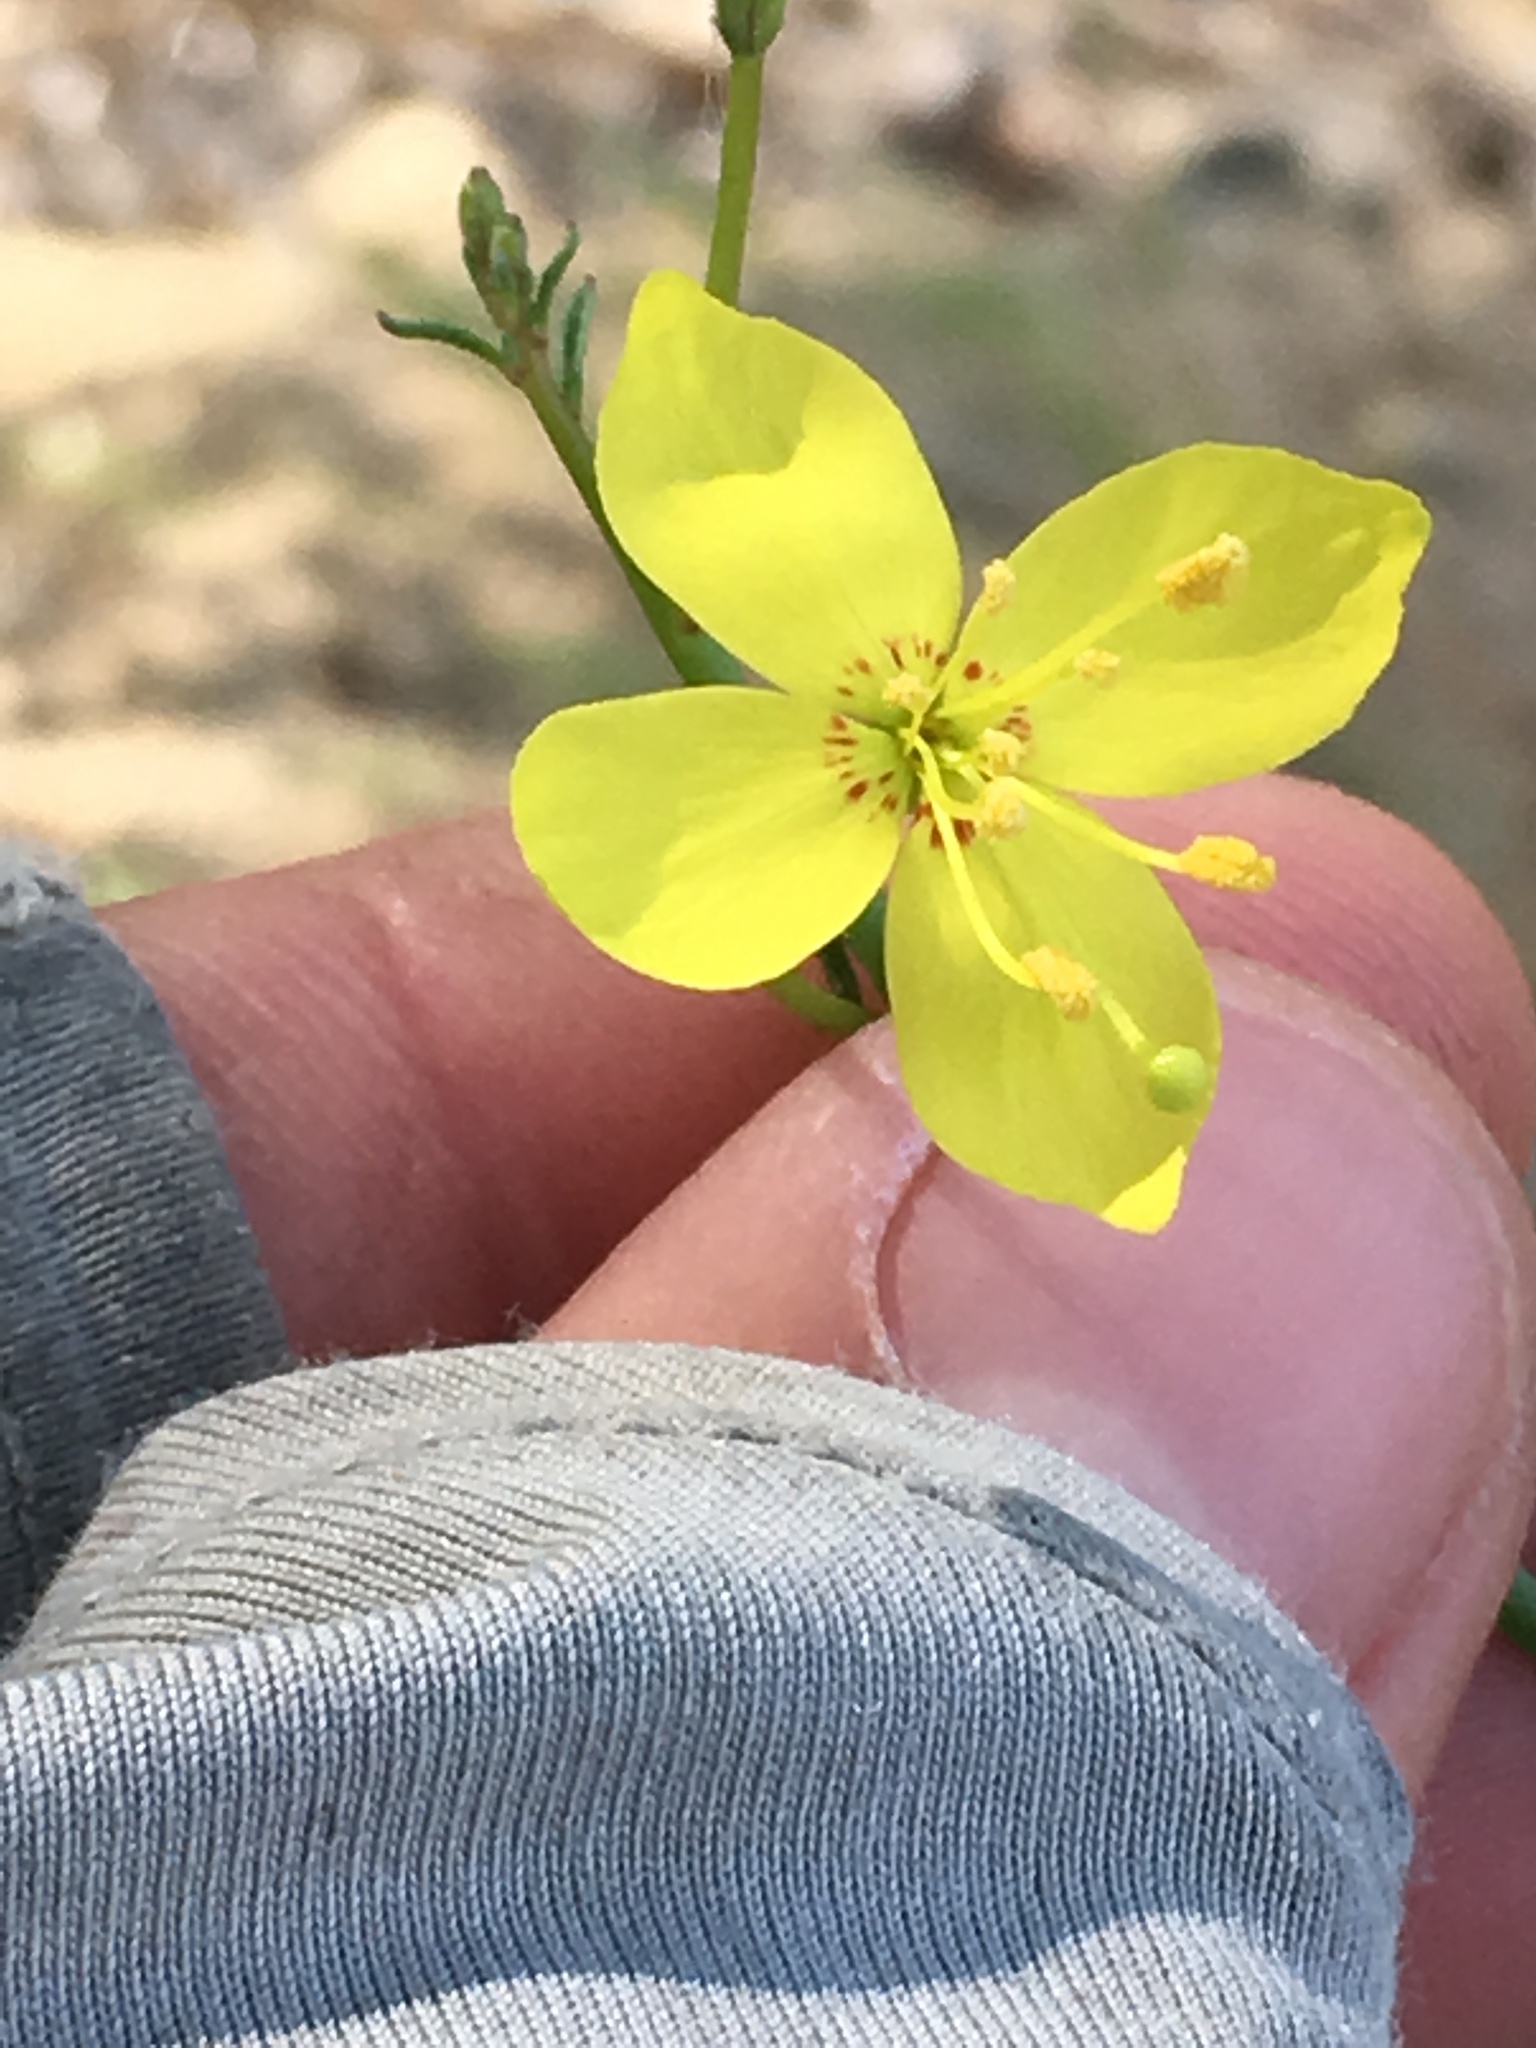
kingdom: Plantae
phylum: Tracheophyta
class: Magnoliopsida
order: Myrtales
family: Onagraceae
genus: Eulobus
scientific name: Eulobus californicus
